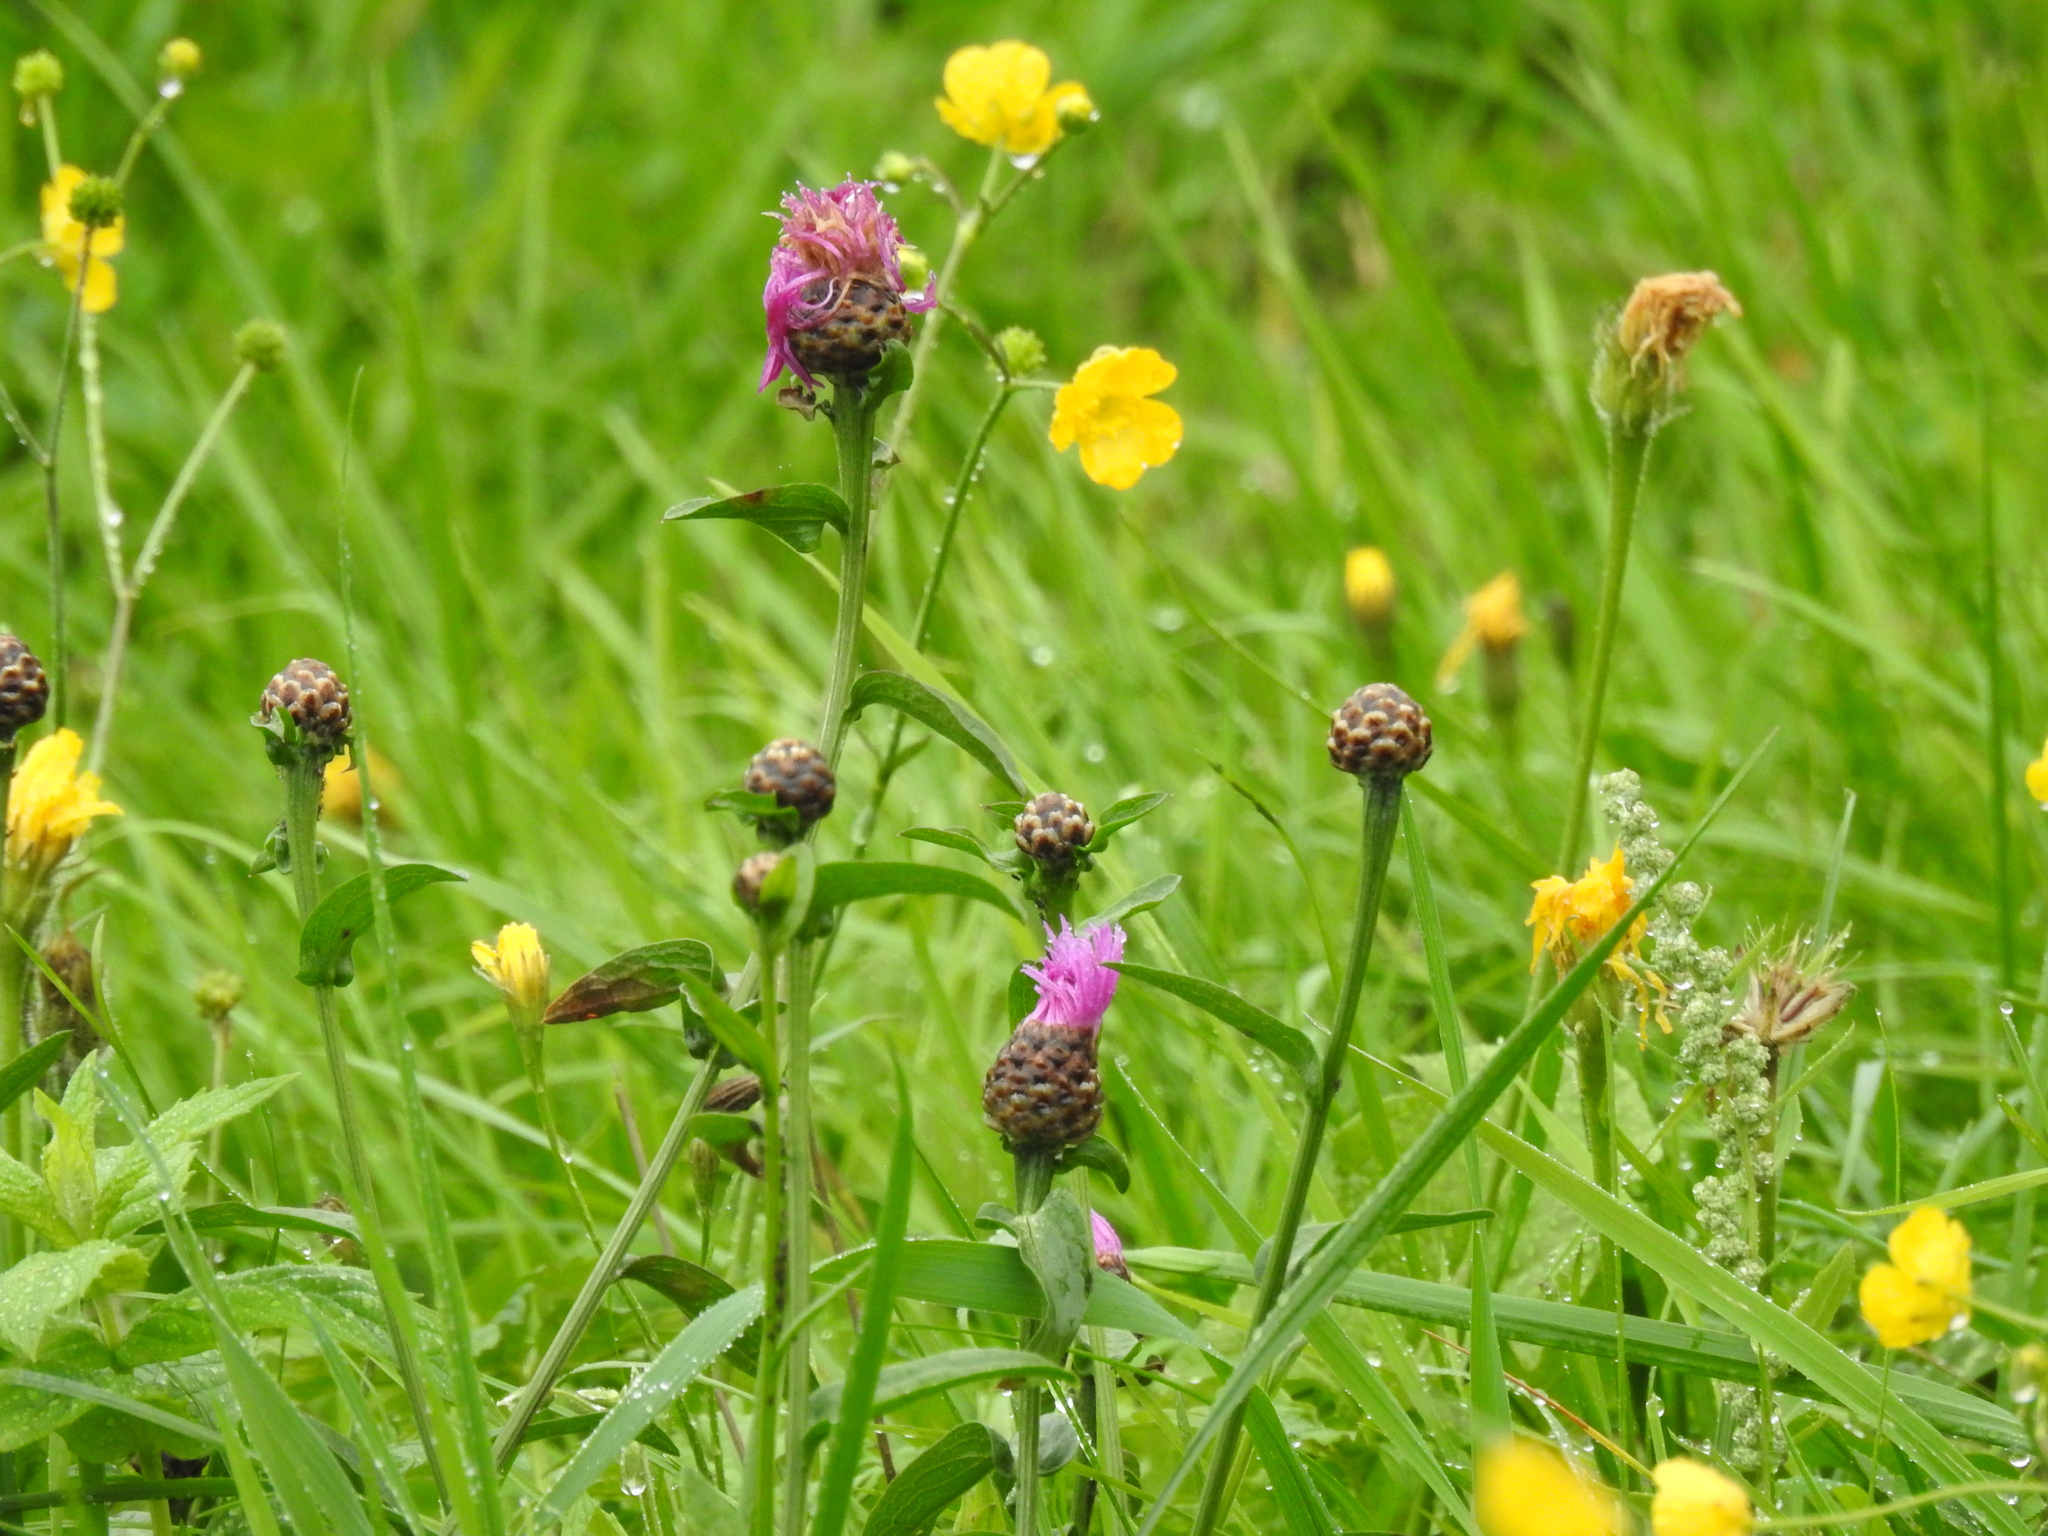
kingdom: Plantae
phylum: Tracheophyta
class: Magnoliopsida
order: Asterales
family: Asteraceae
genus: Centaurea
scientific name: Centaurea jacea
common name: Brown knapweed
